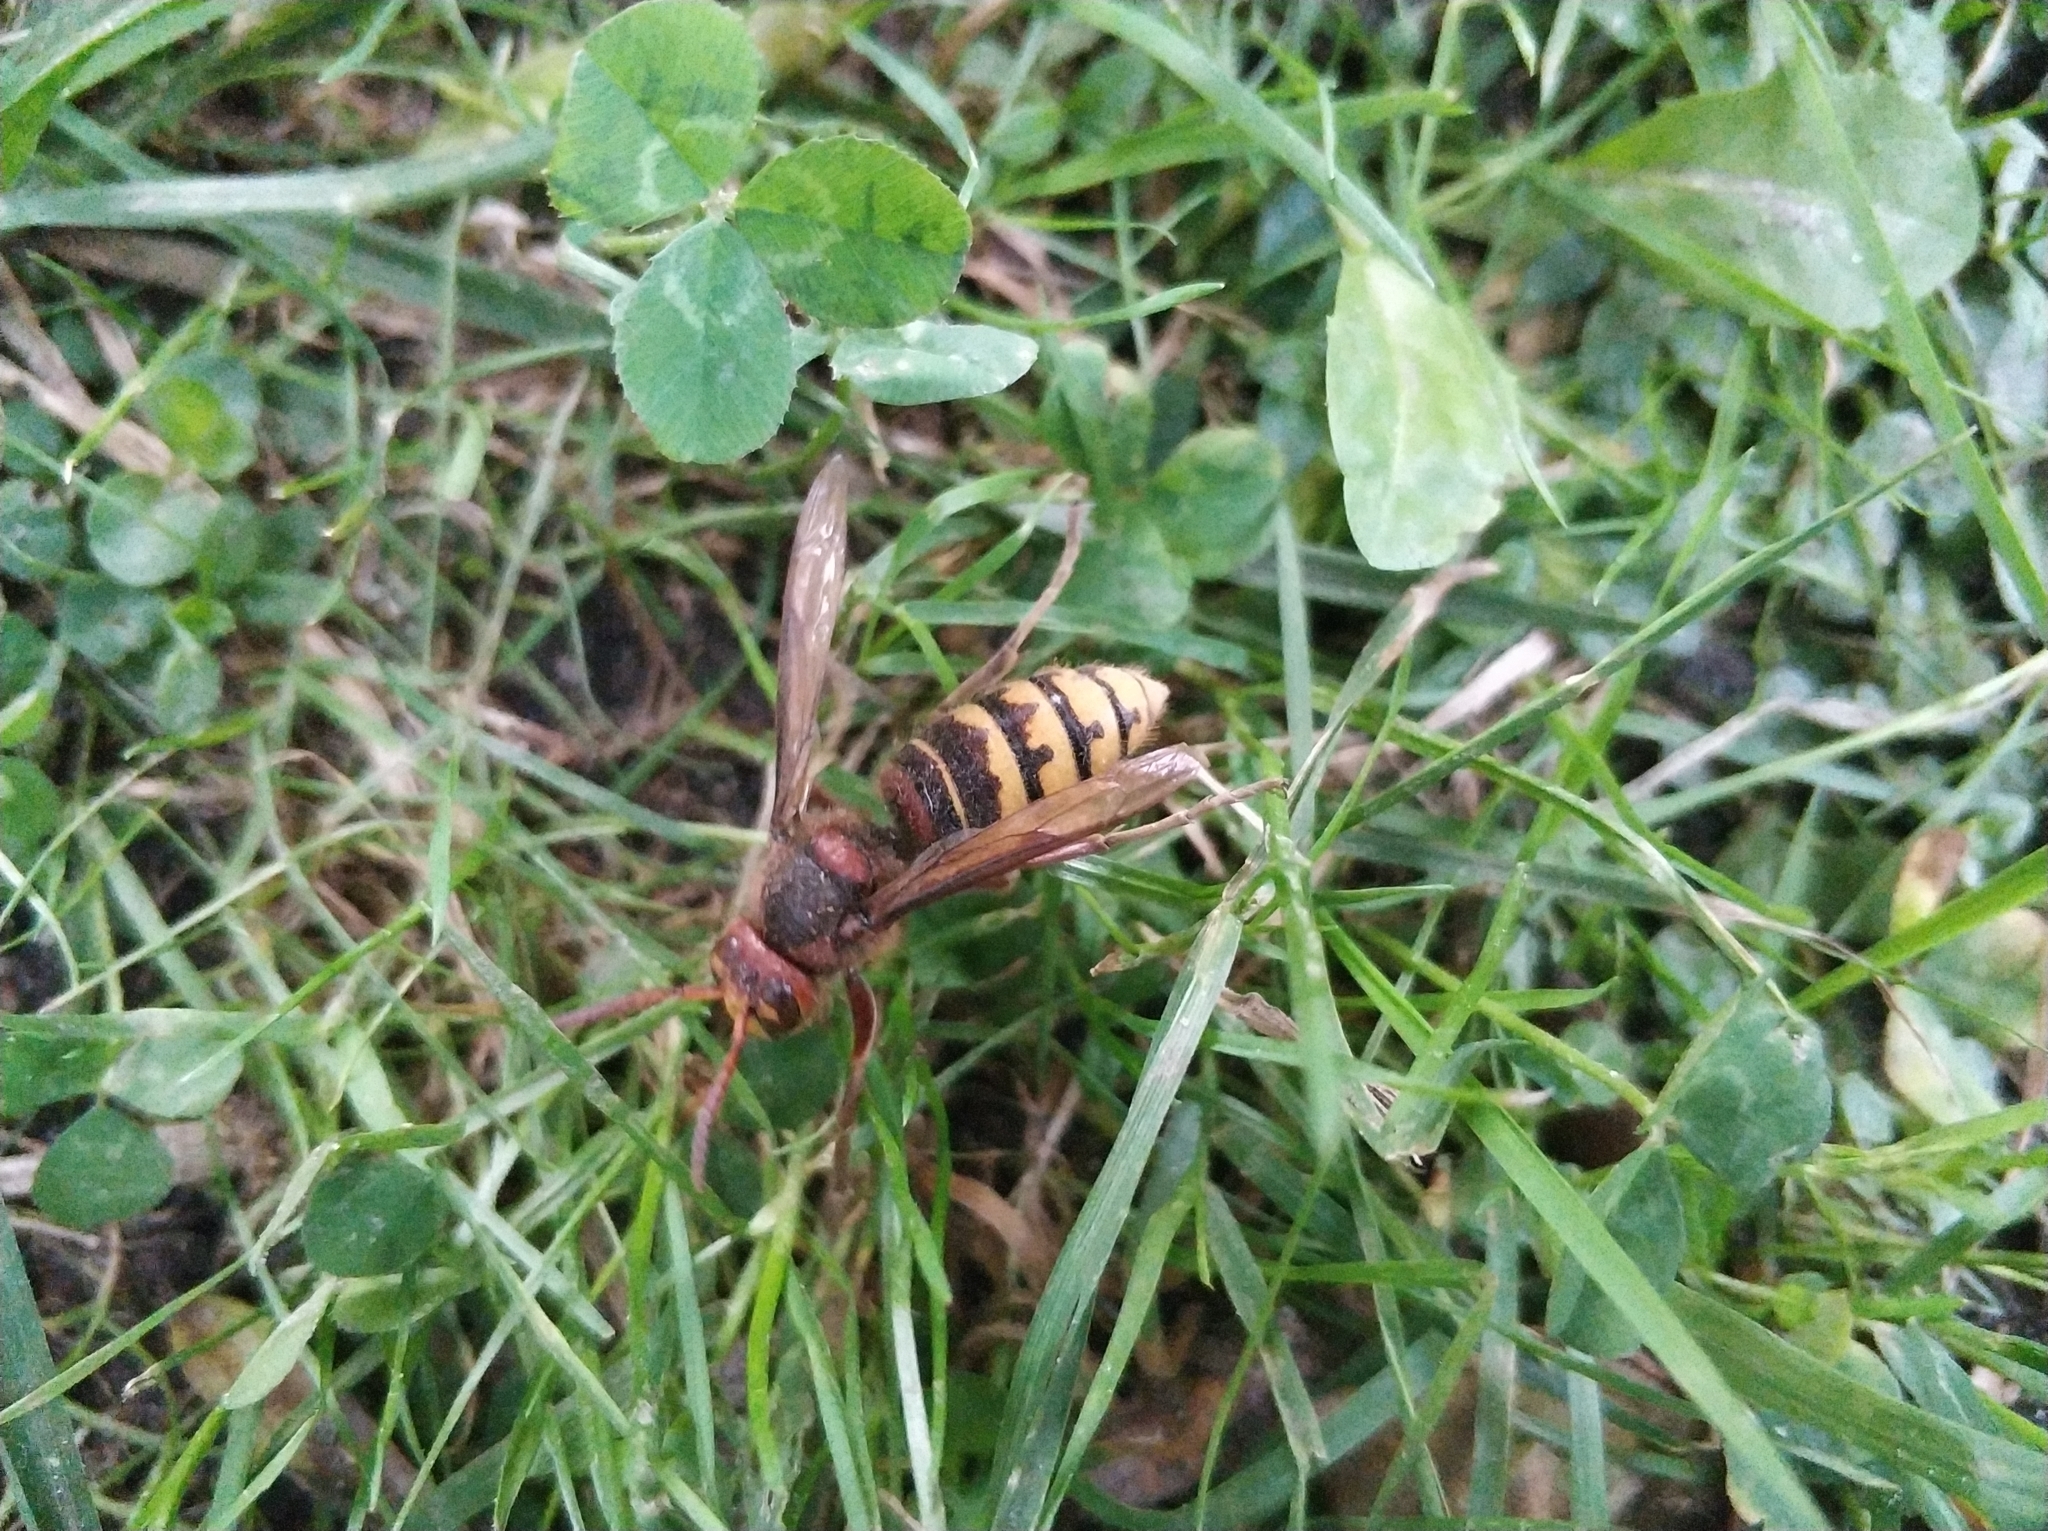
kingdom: Animalia
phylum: Arthropoda
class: Insecta
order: Hymenoptera
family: Vespidae
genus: Vespa
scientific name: Vespa crabro
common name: Hornet
